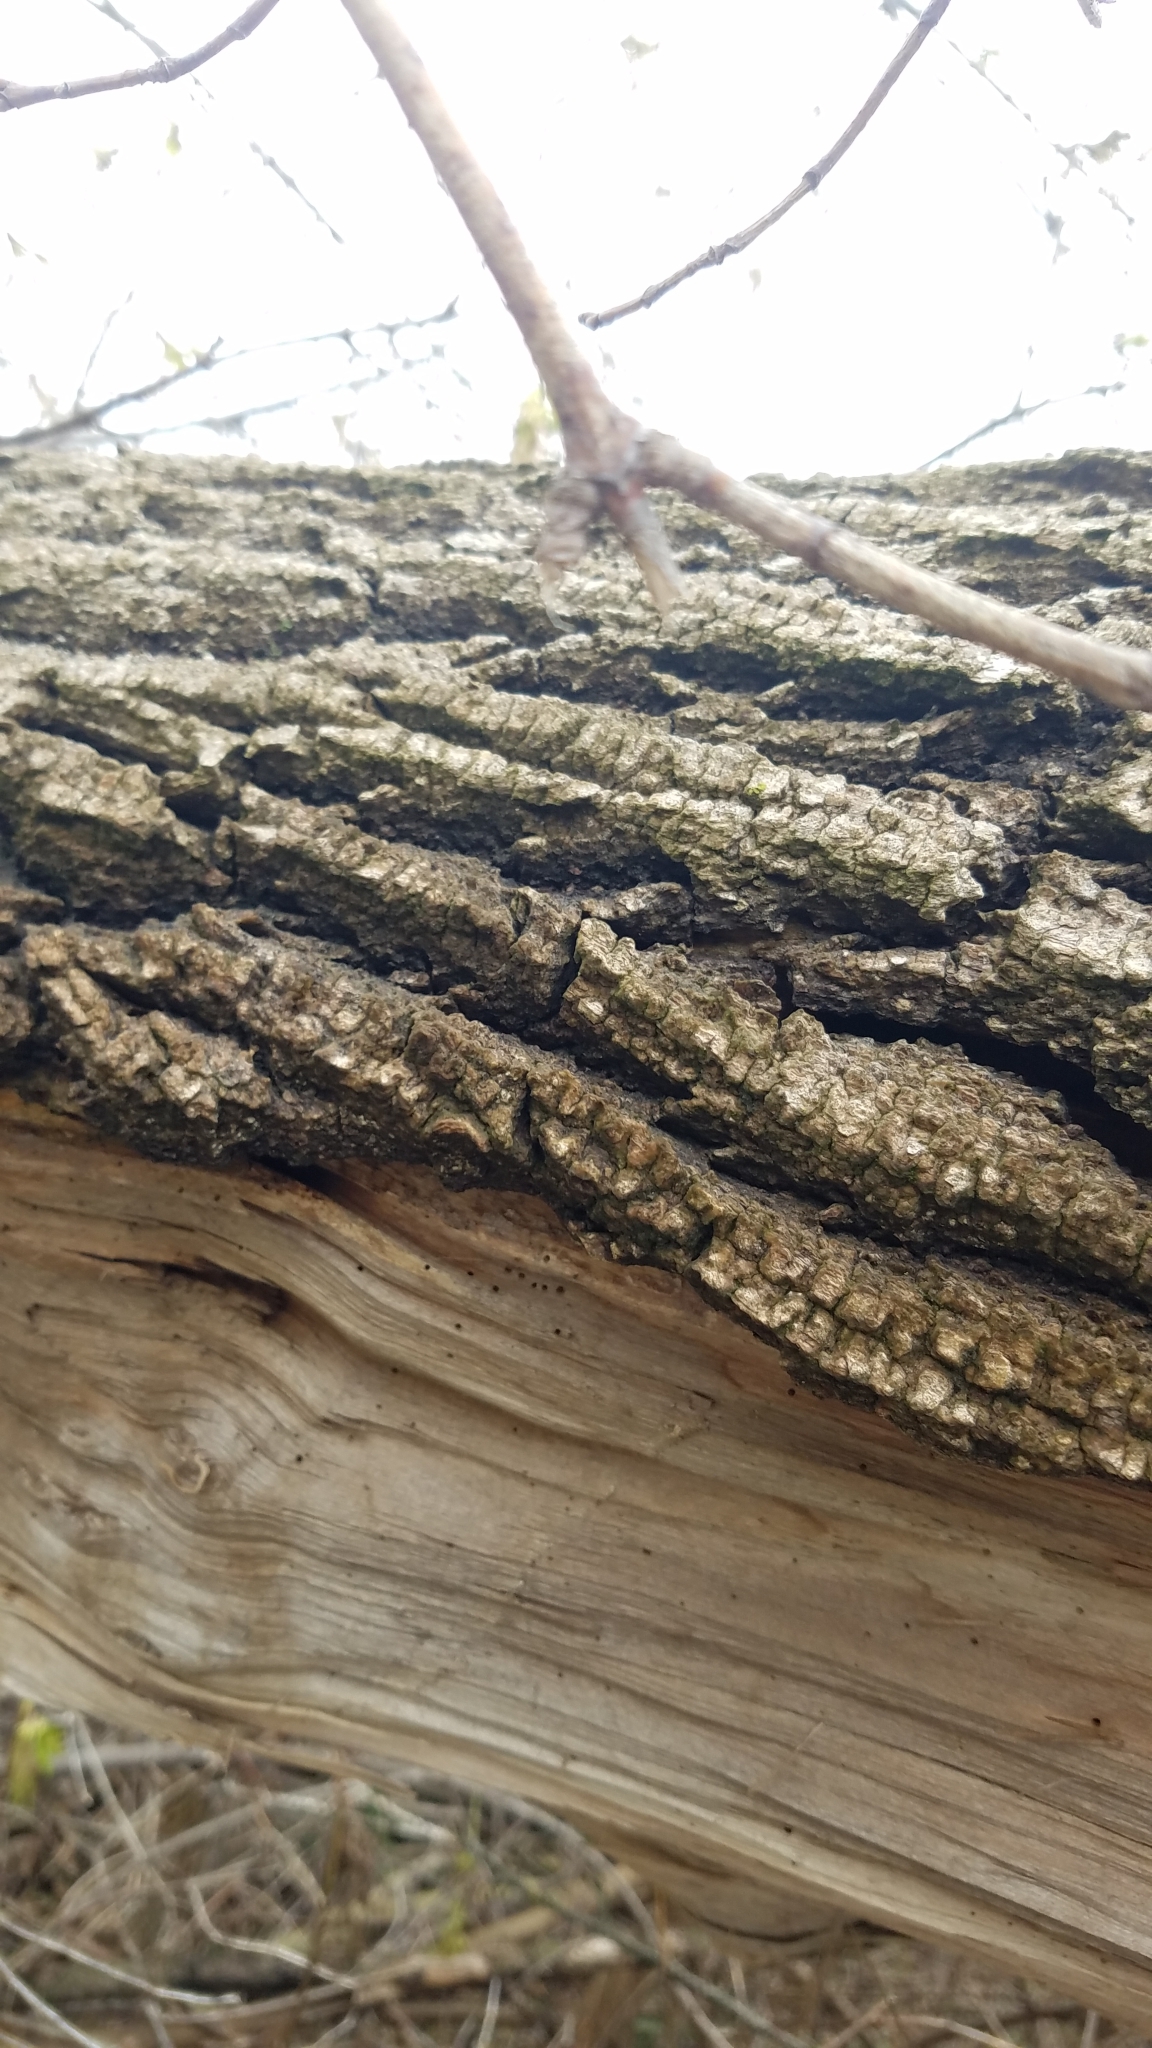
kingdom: Plantae
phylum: Tracheophyta
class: Magnoliopsida
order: Sapindales
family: Sapindaceae
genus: Acer
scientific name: Acer negundo
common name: Ashleaf maple
